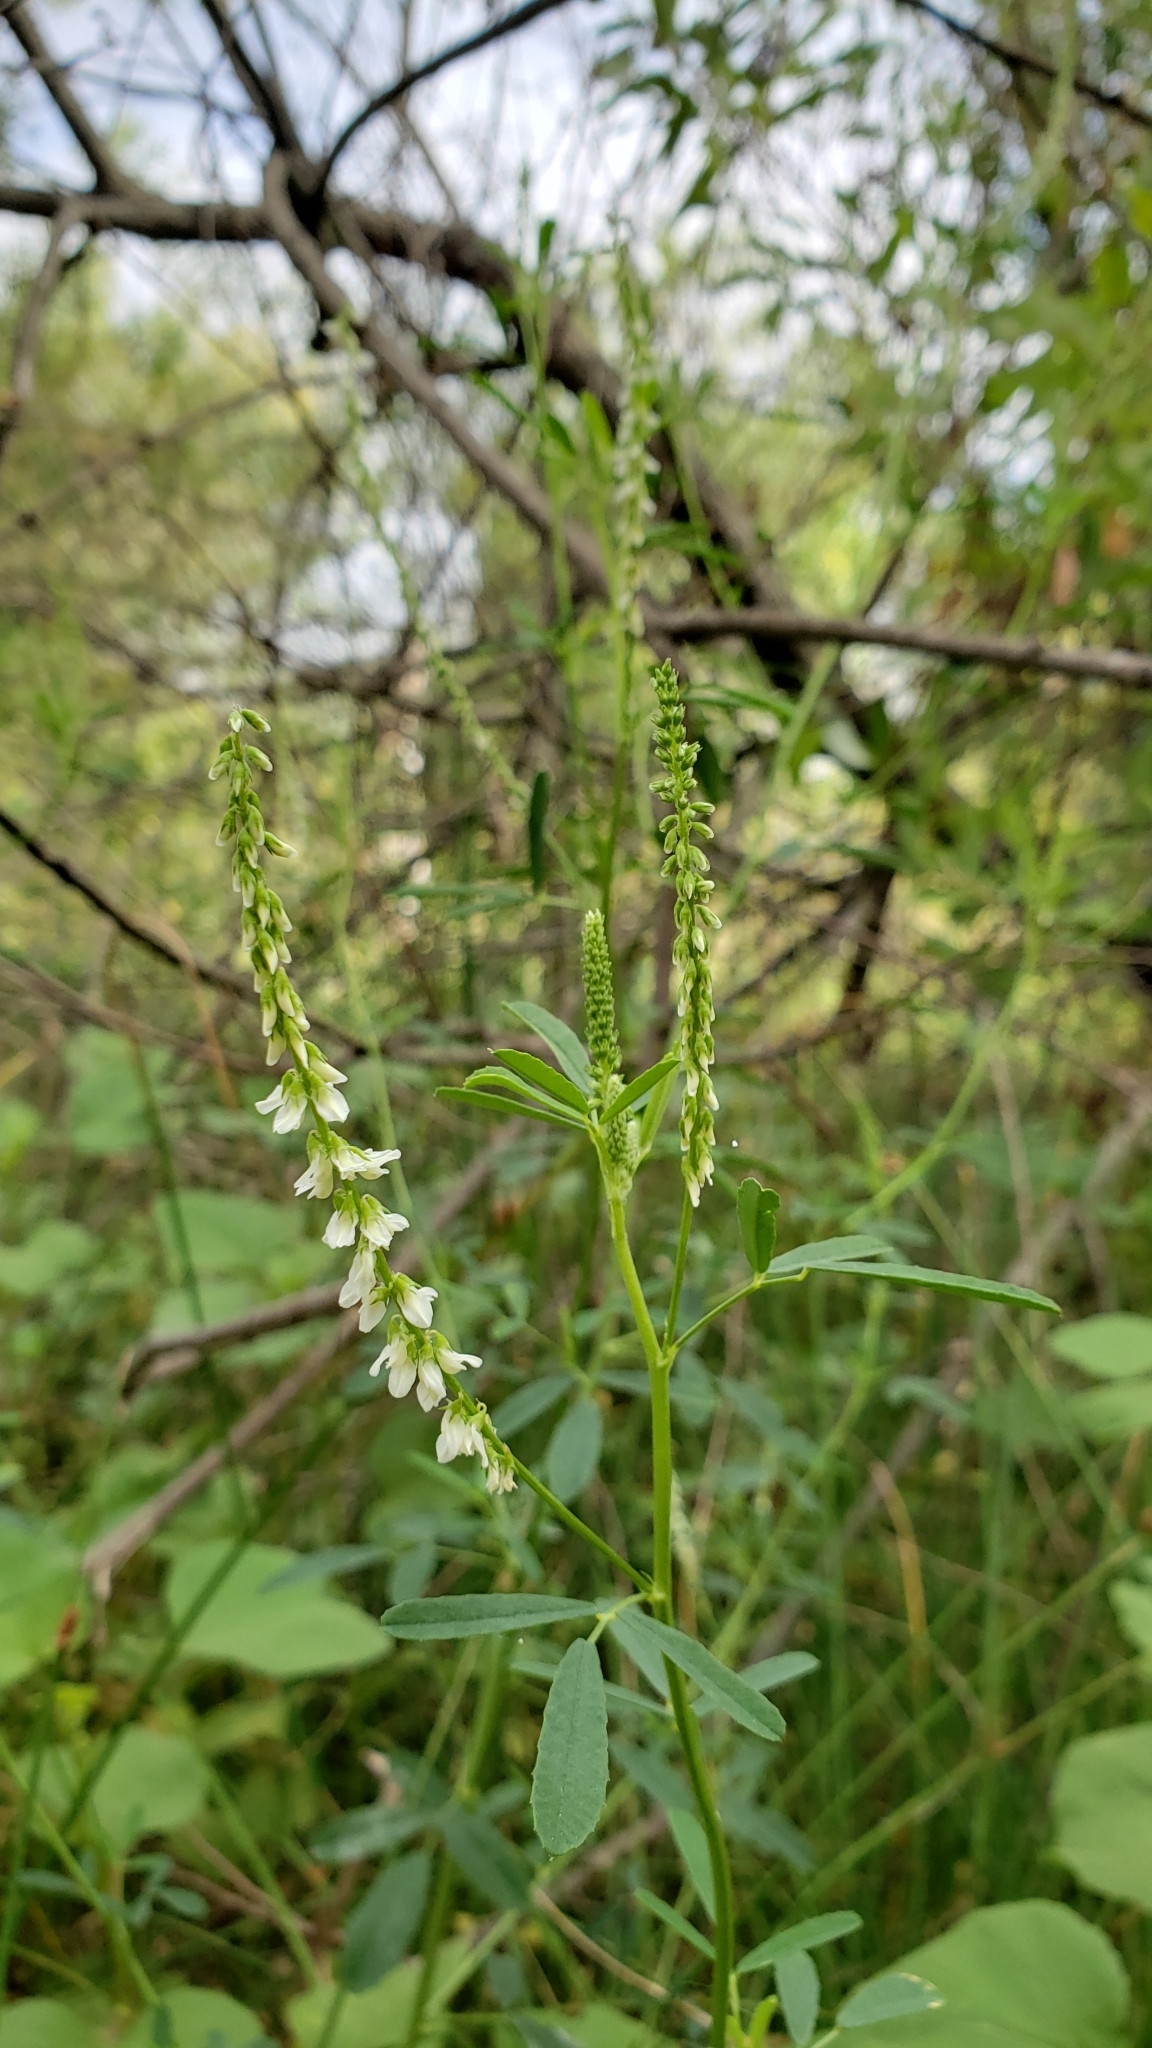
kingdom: Plantae
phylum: Tracheophyta
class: Magnoliopsida
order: Fabales
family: Fabaceae
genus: Melilotus
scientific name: Melilotus albus
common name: White melilot
